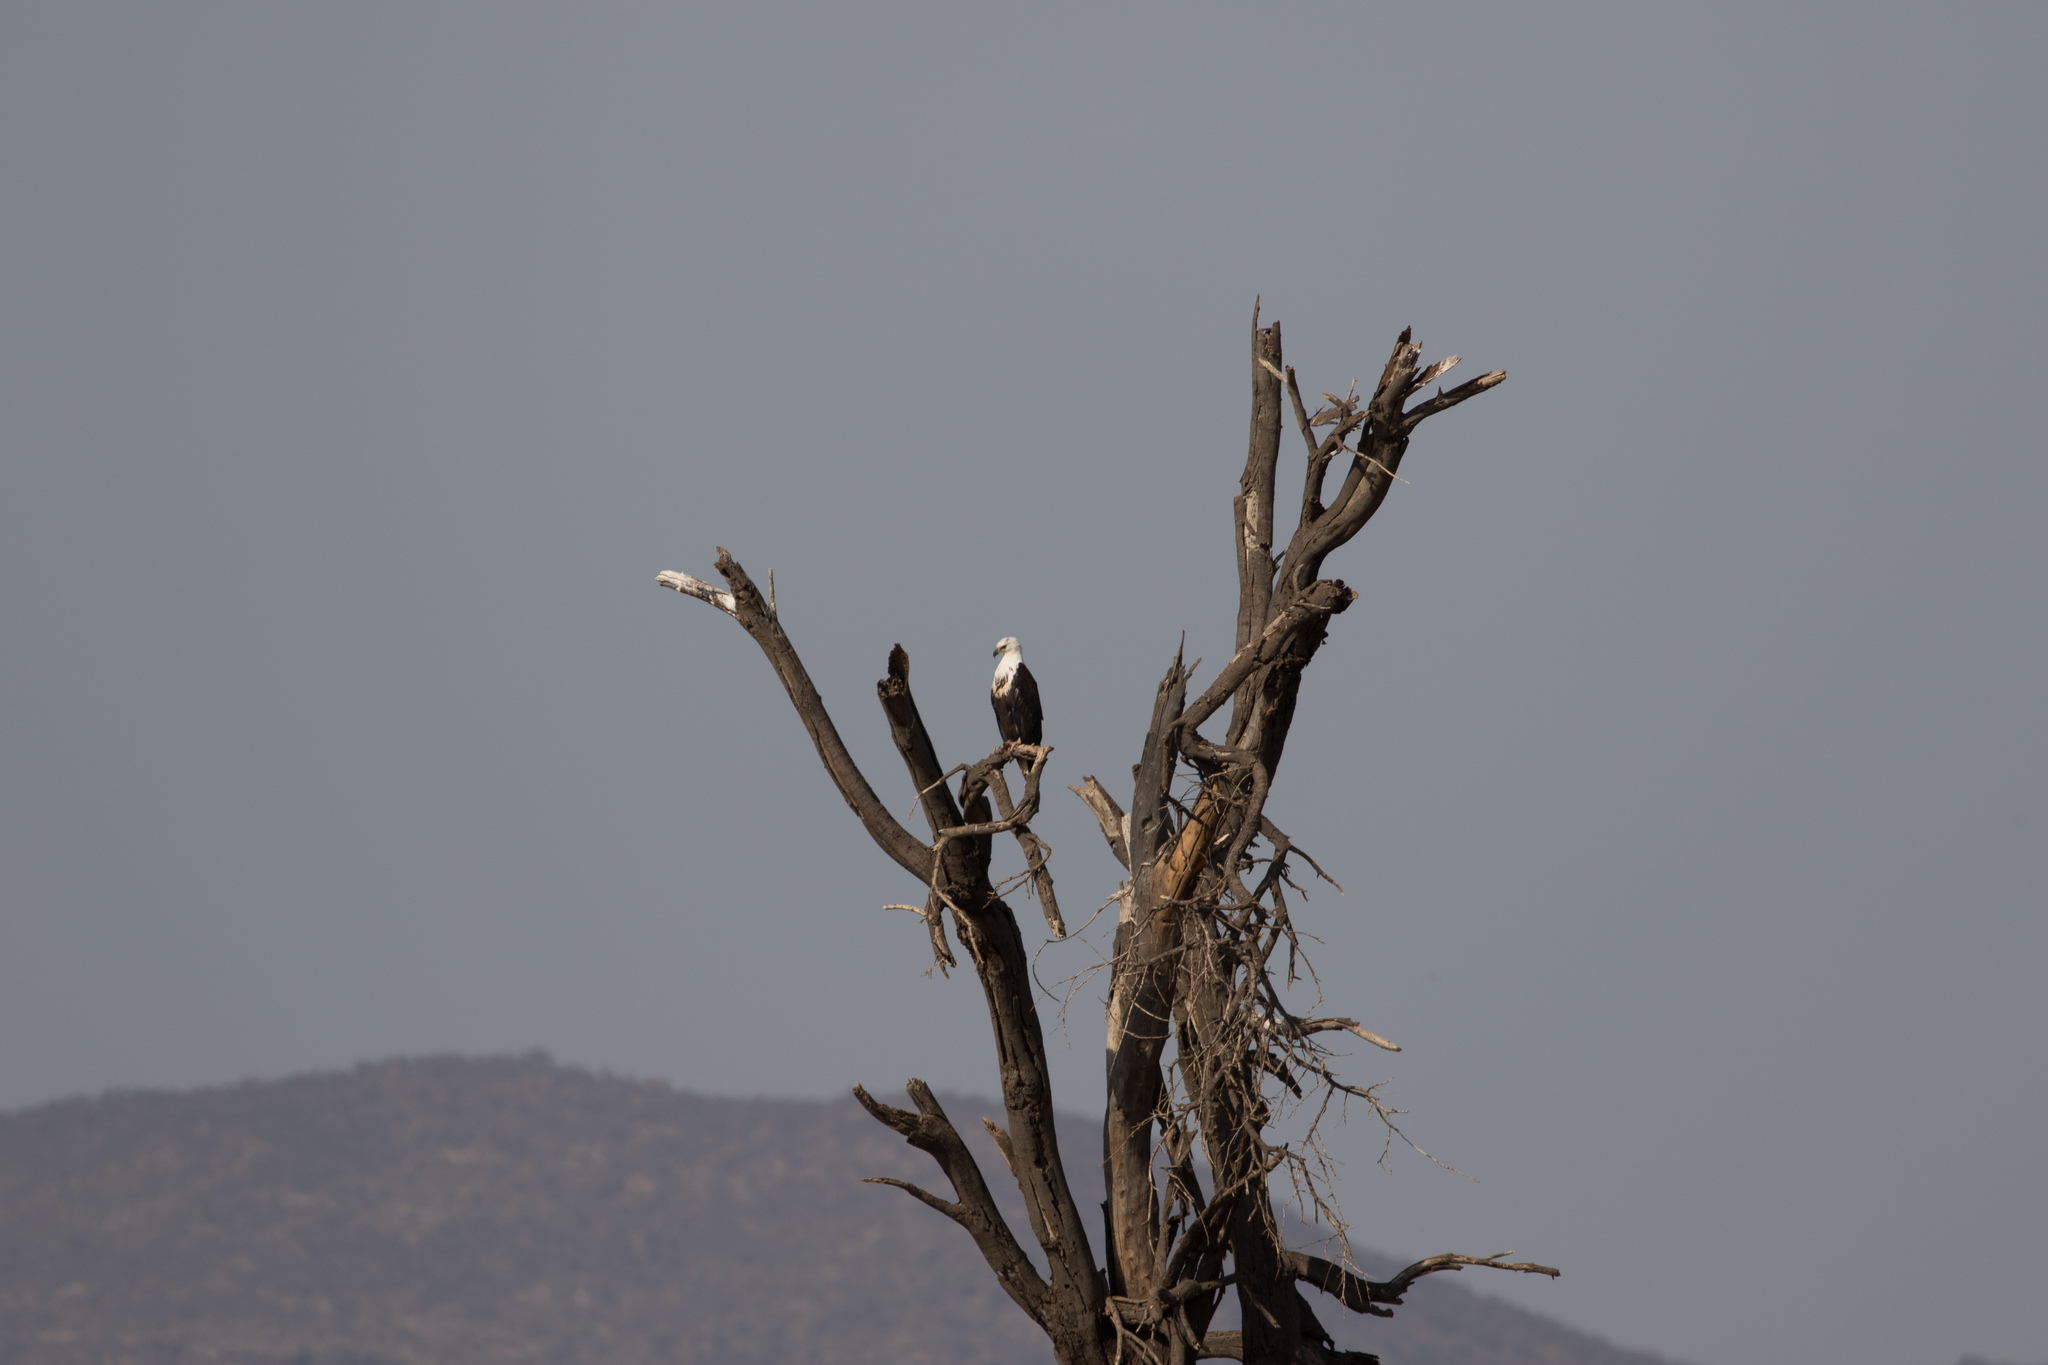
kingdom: Animalia
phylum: Chordata
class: Aves
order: Accipitriformes
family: Accipitridae
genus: Haliaeetus
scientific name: Haliaeetus vocifer
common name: African fish eagle
